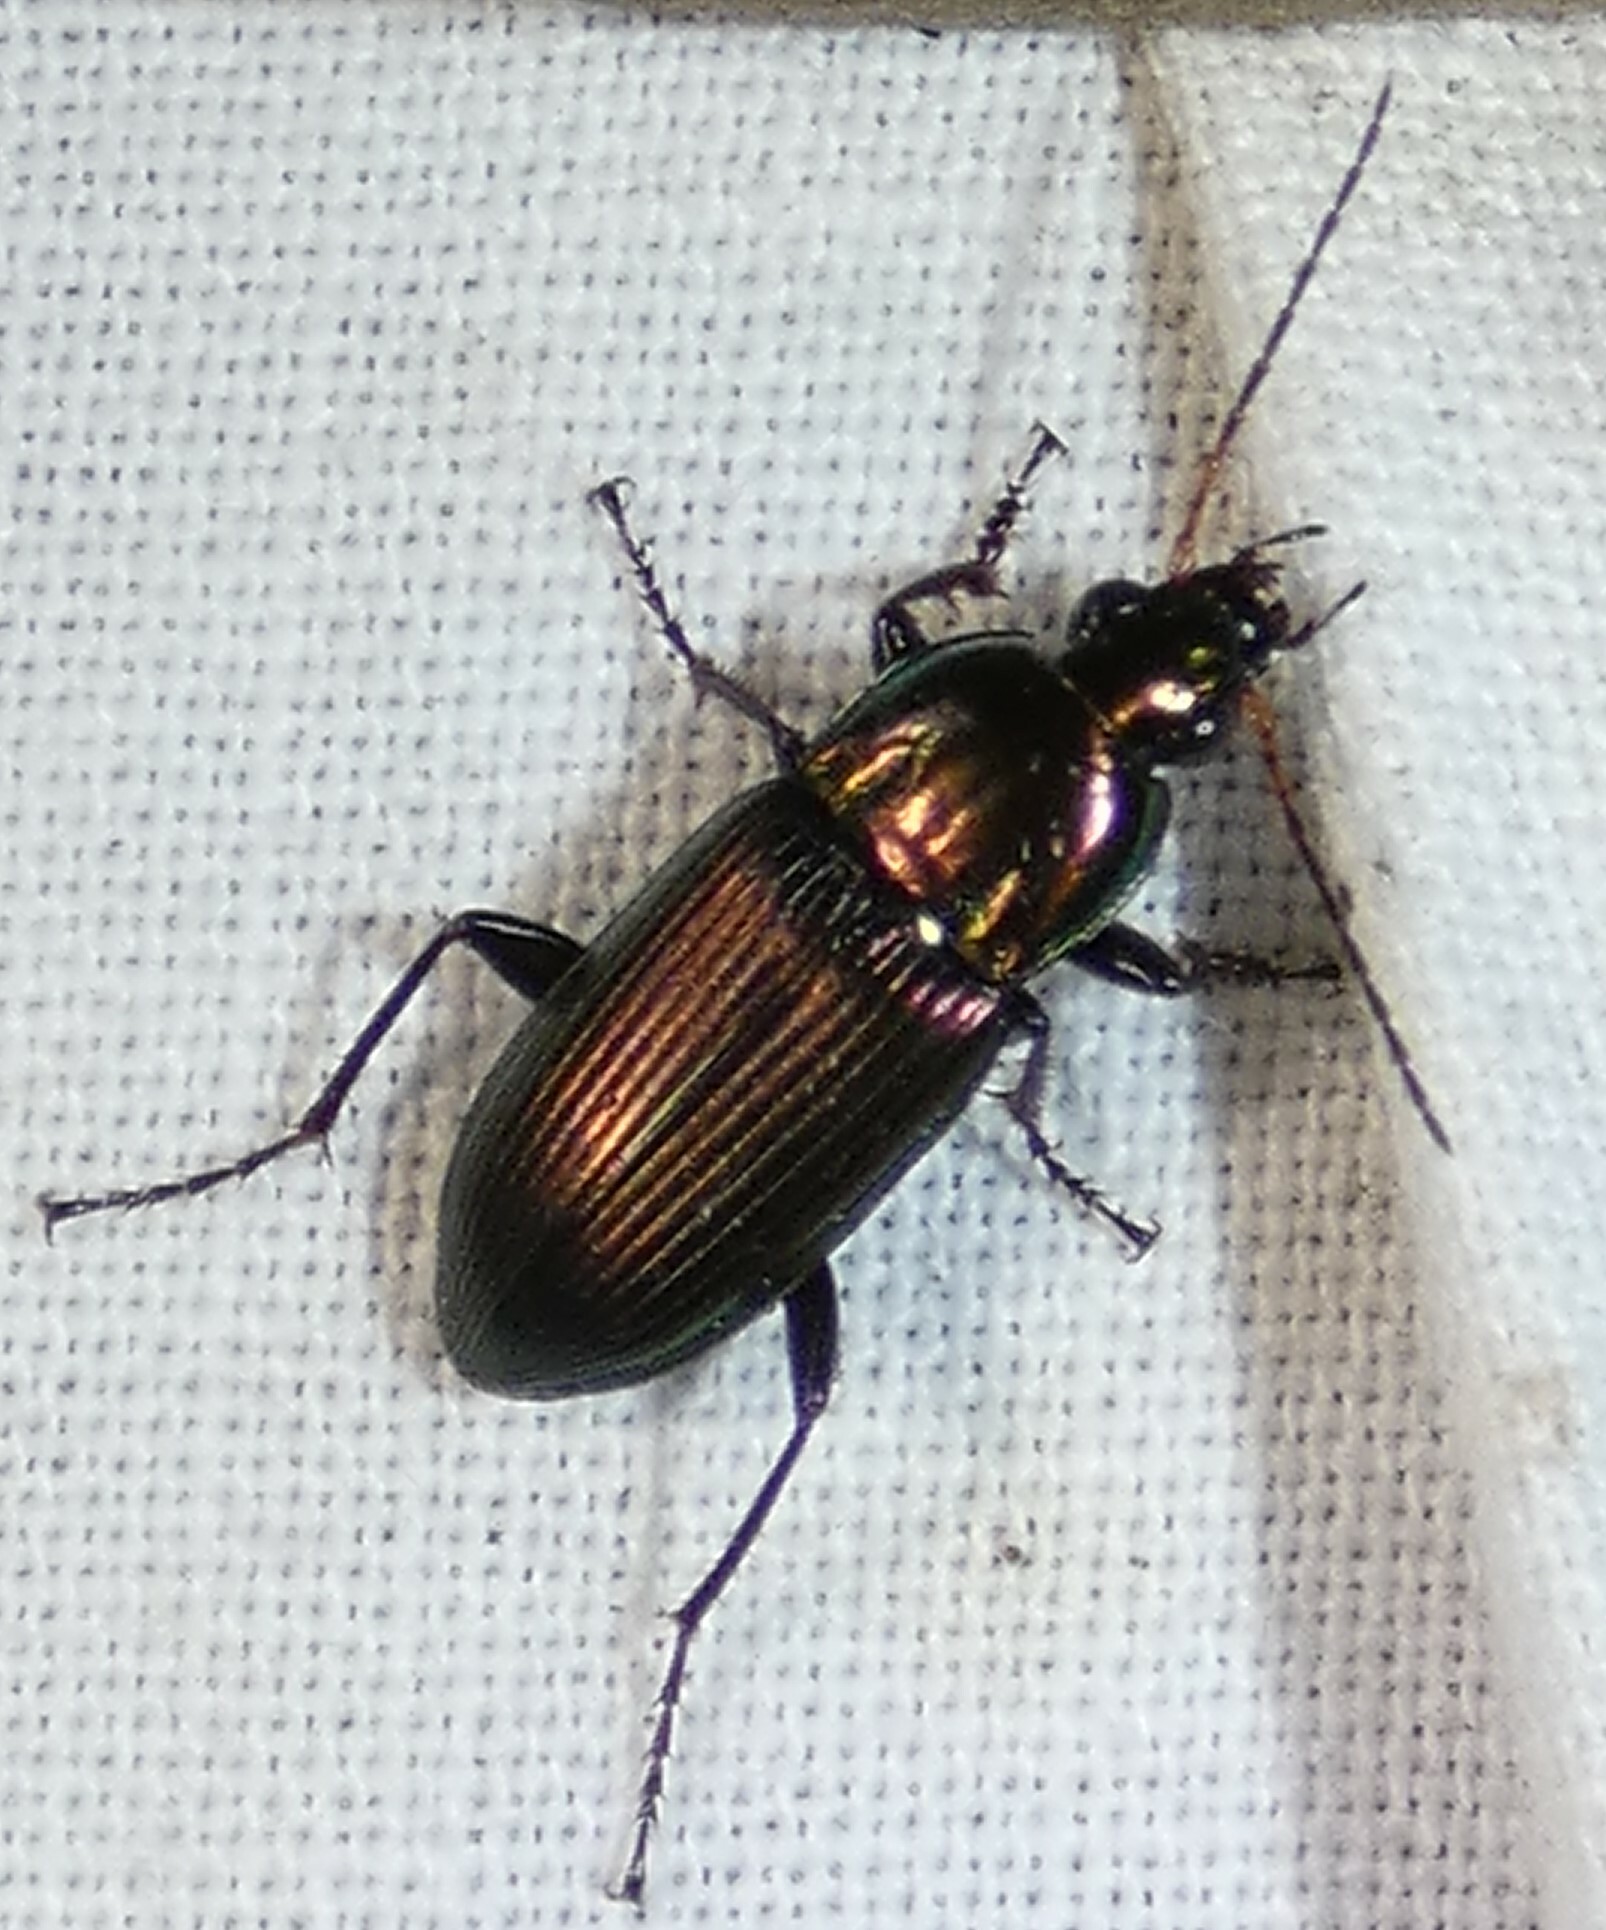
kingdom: Animalia
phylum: Arthropoda
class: Insecta
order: Coleoptera
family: Carabidae
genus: Poecilus
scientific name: Poecilus chalcites
